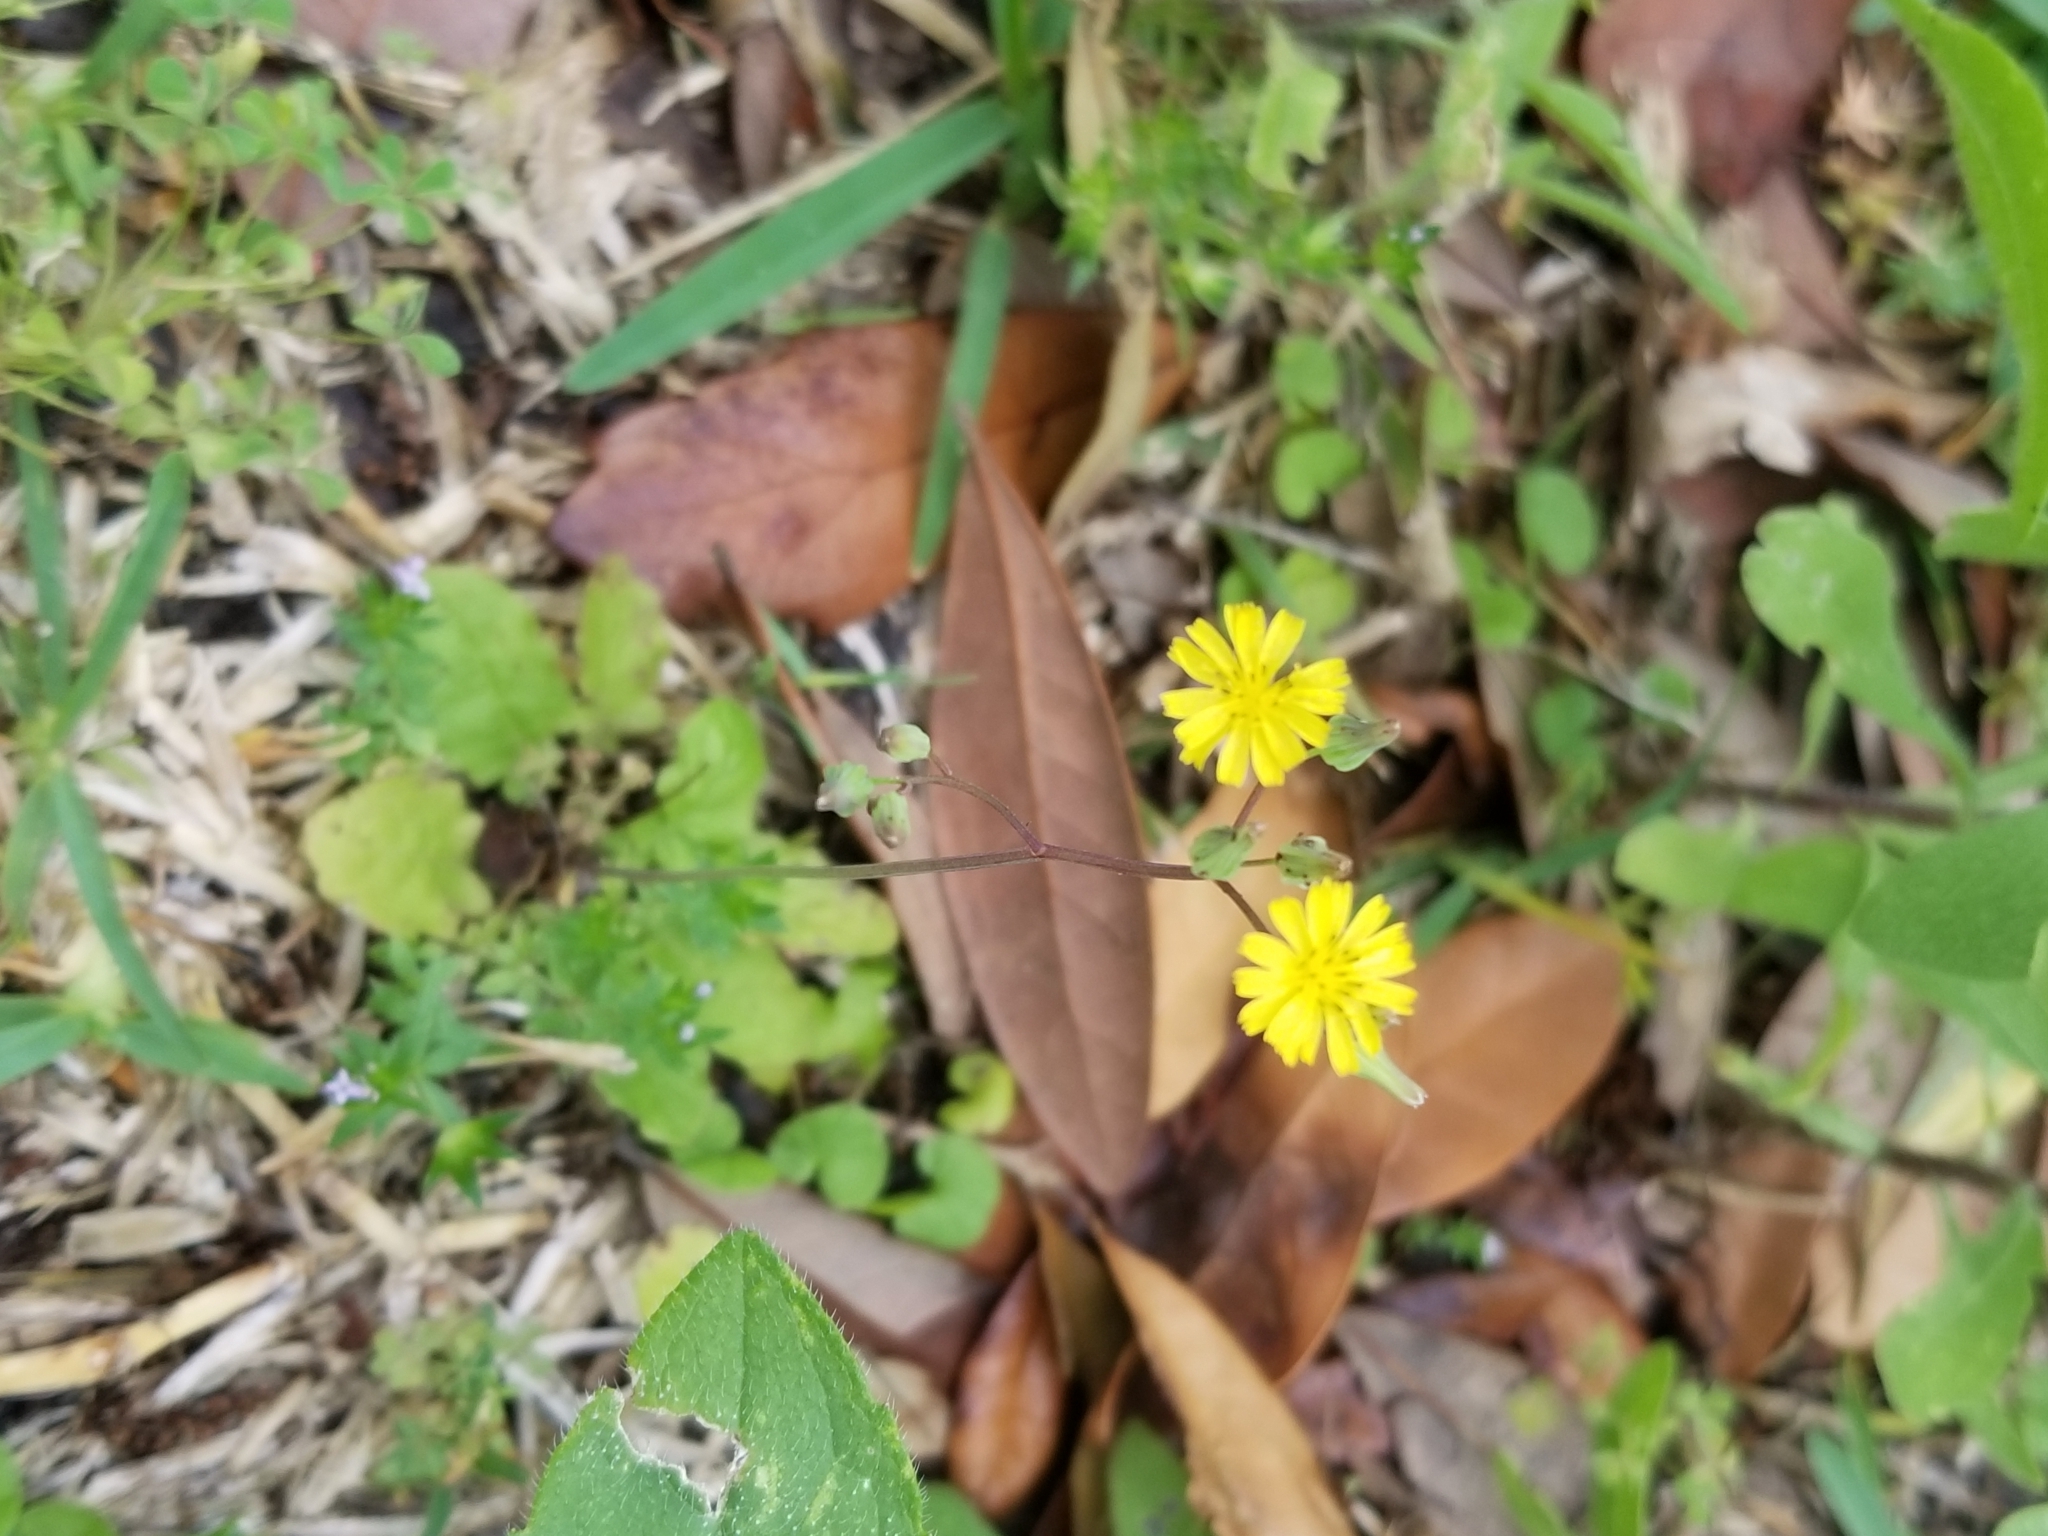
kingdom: Plantae
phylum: Tracheophyta
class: Magnoliopsida
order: Asterales
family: Asteraceae
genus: Youngia
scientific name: Youngia japonica
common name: Oriental false hawksbeard
